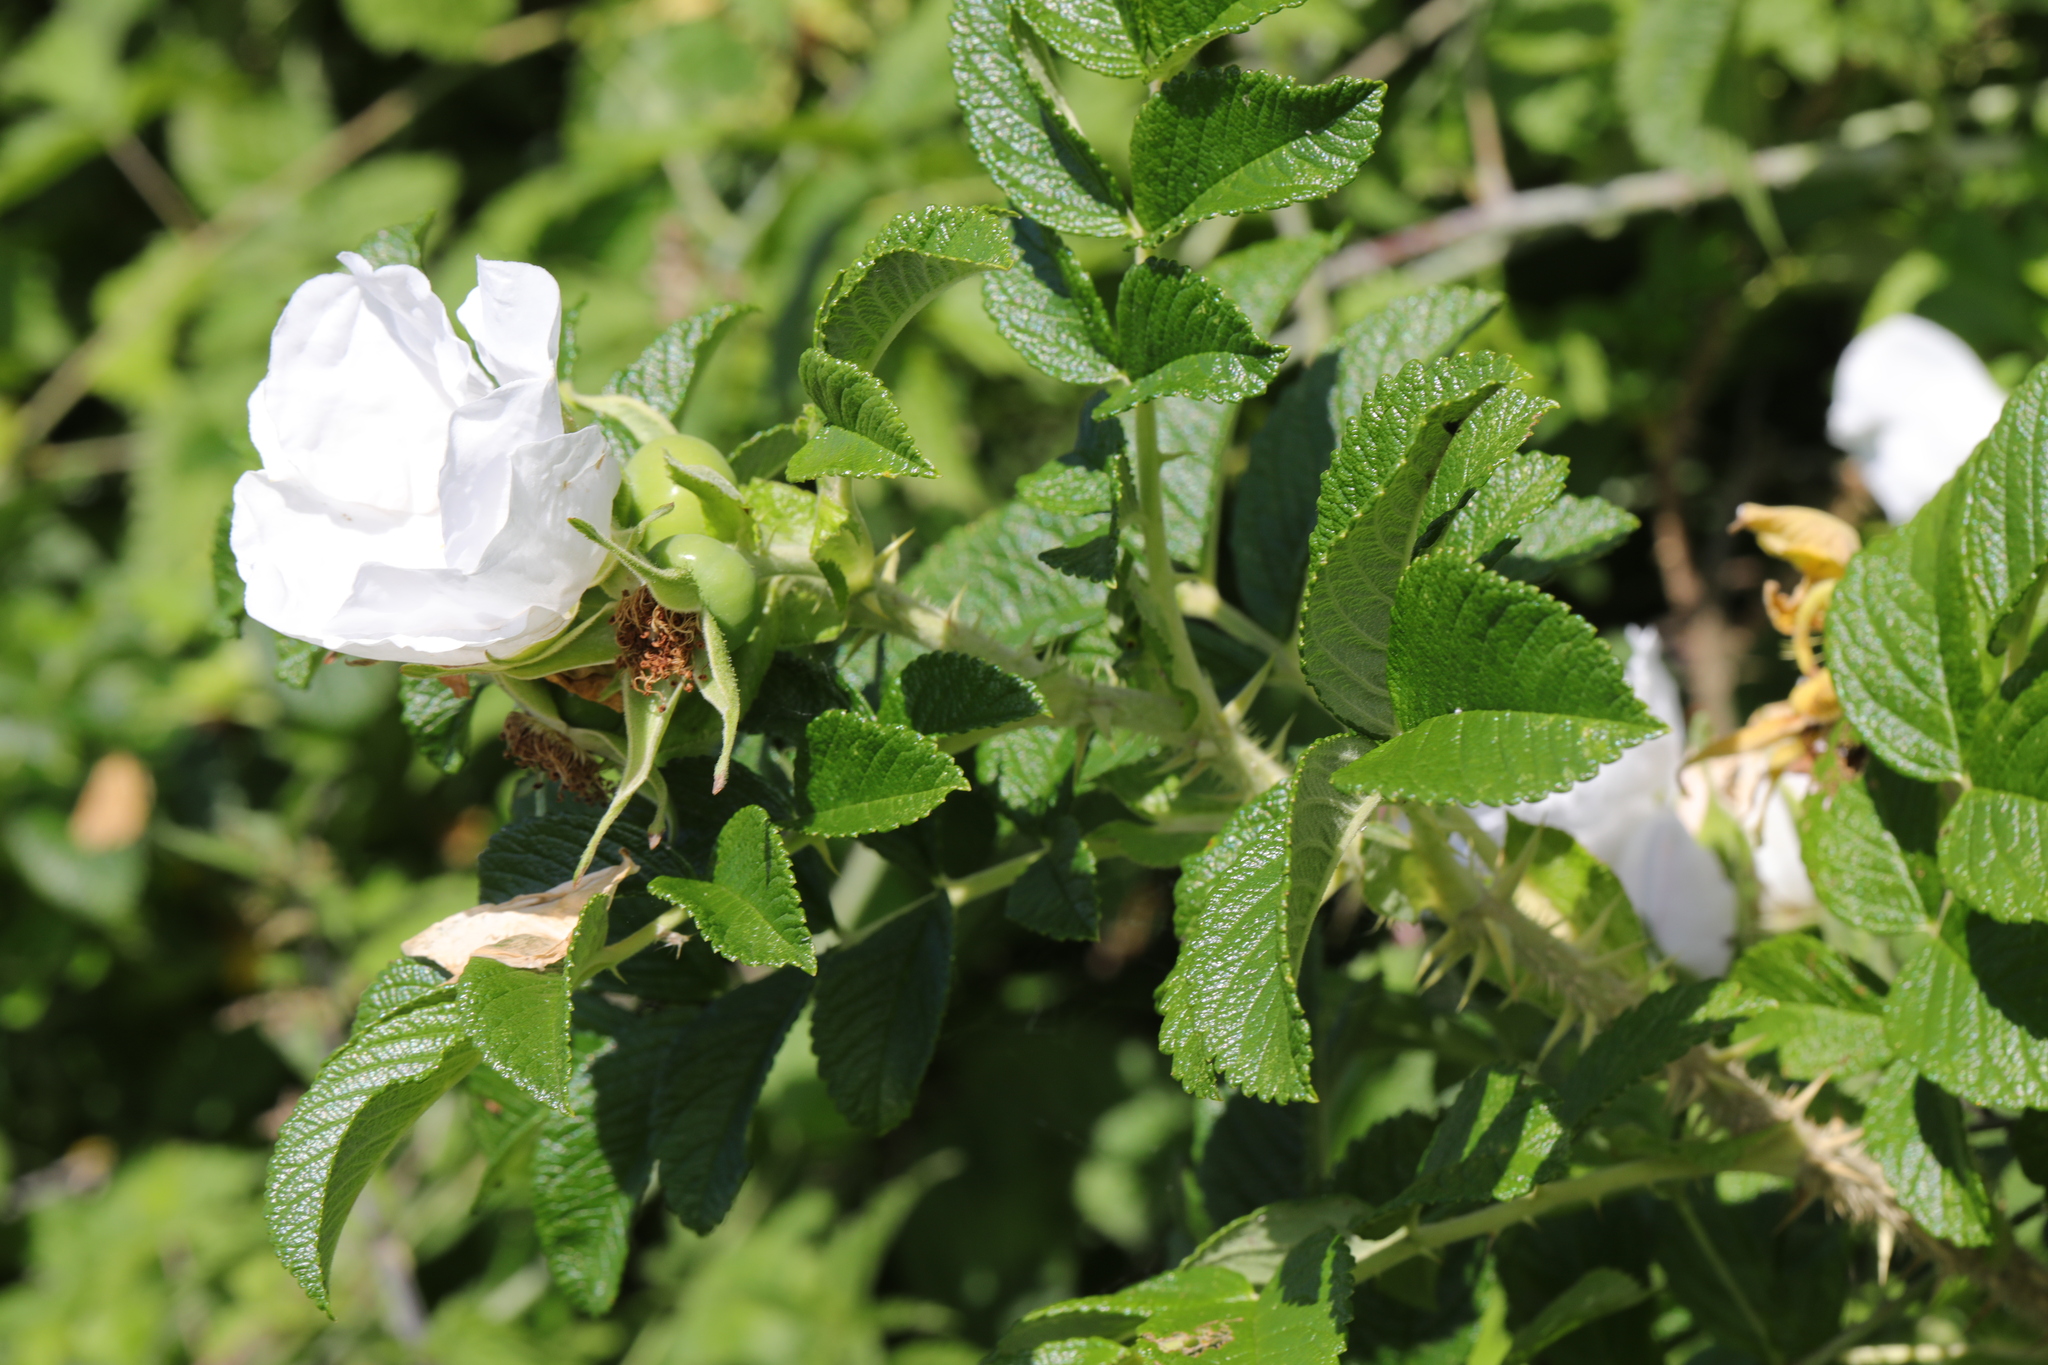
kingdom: Plantae
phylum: Tracheophyta
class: Magnoliopsida
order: Rosales
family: Rosaceae
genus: Rosa
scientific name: Rosa rugosa
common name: Japanese rose
